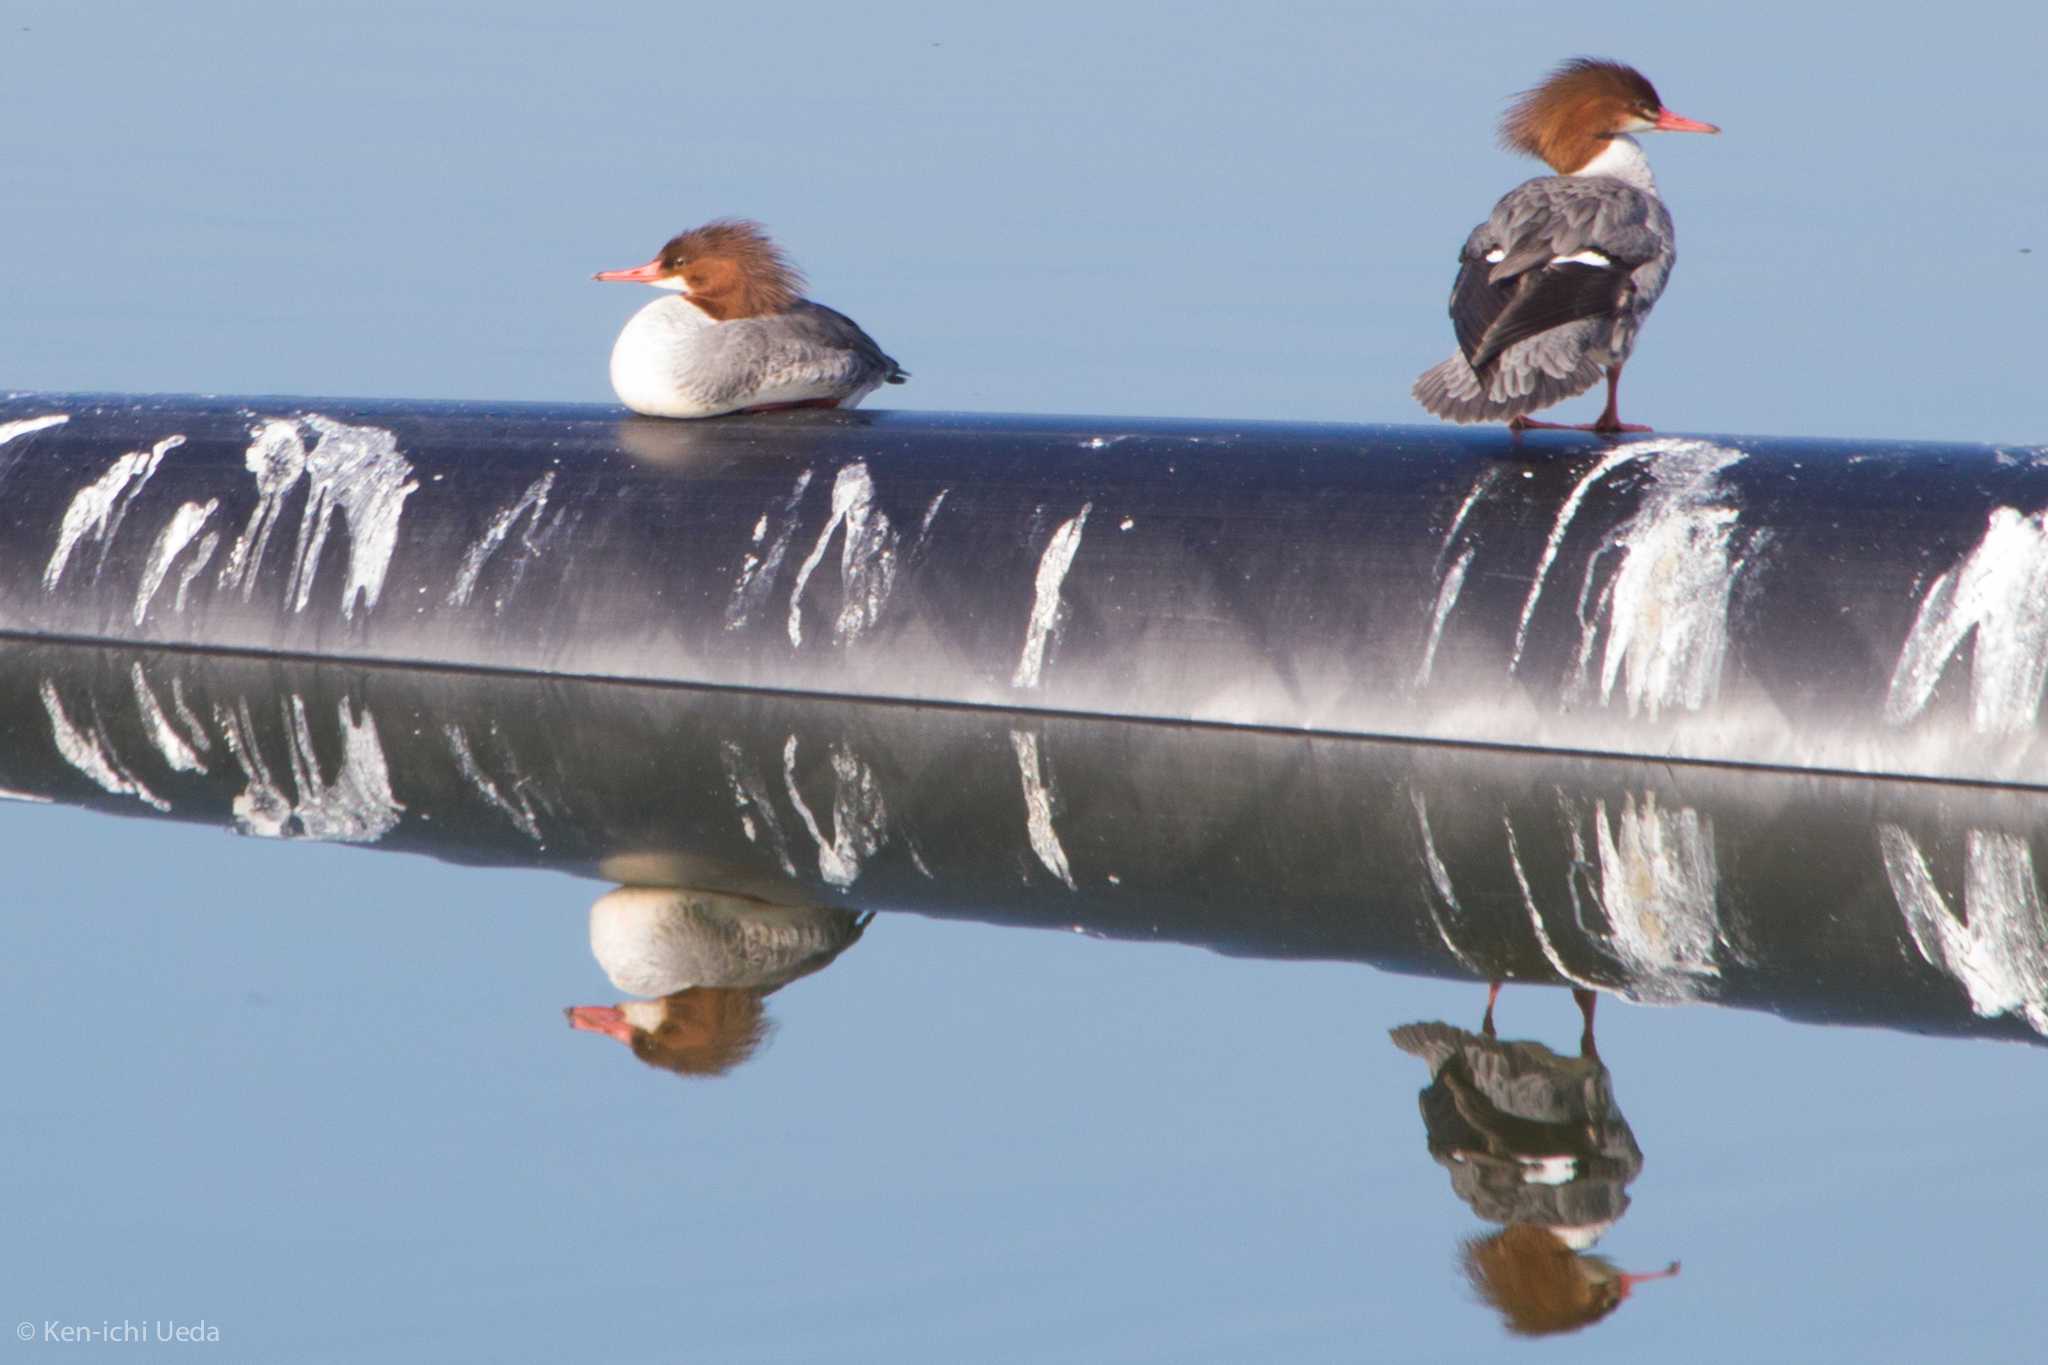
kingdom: Animalia
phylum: Chordata
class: Aves
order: Anseriformes
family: Anatidae
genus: Mergus
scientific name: Mergus merganser
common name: Common merganser
